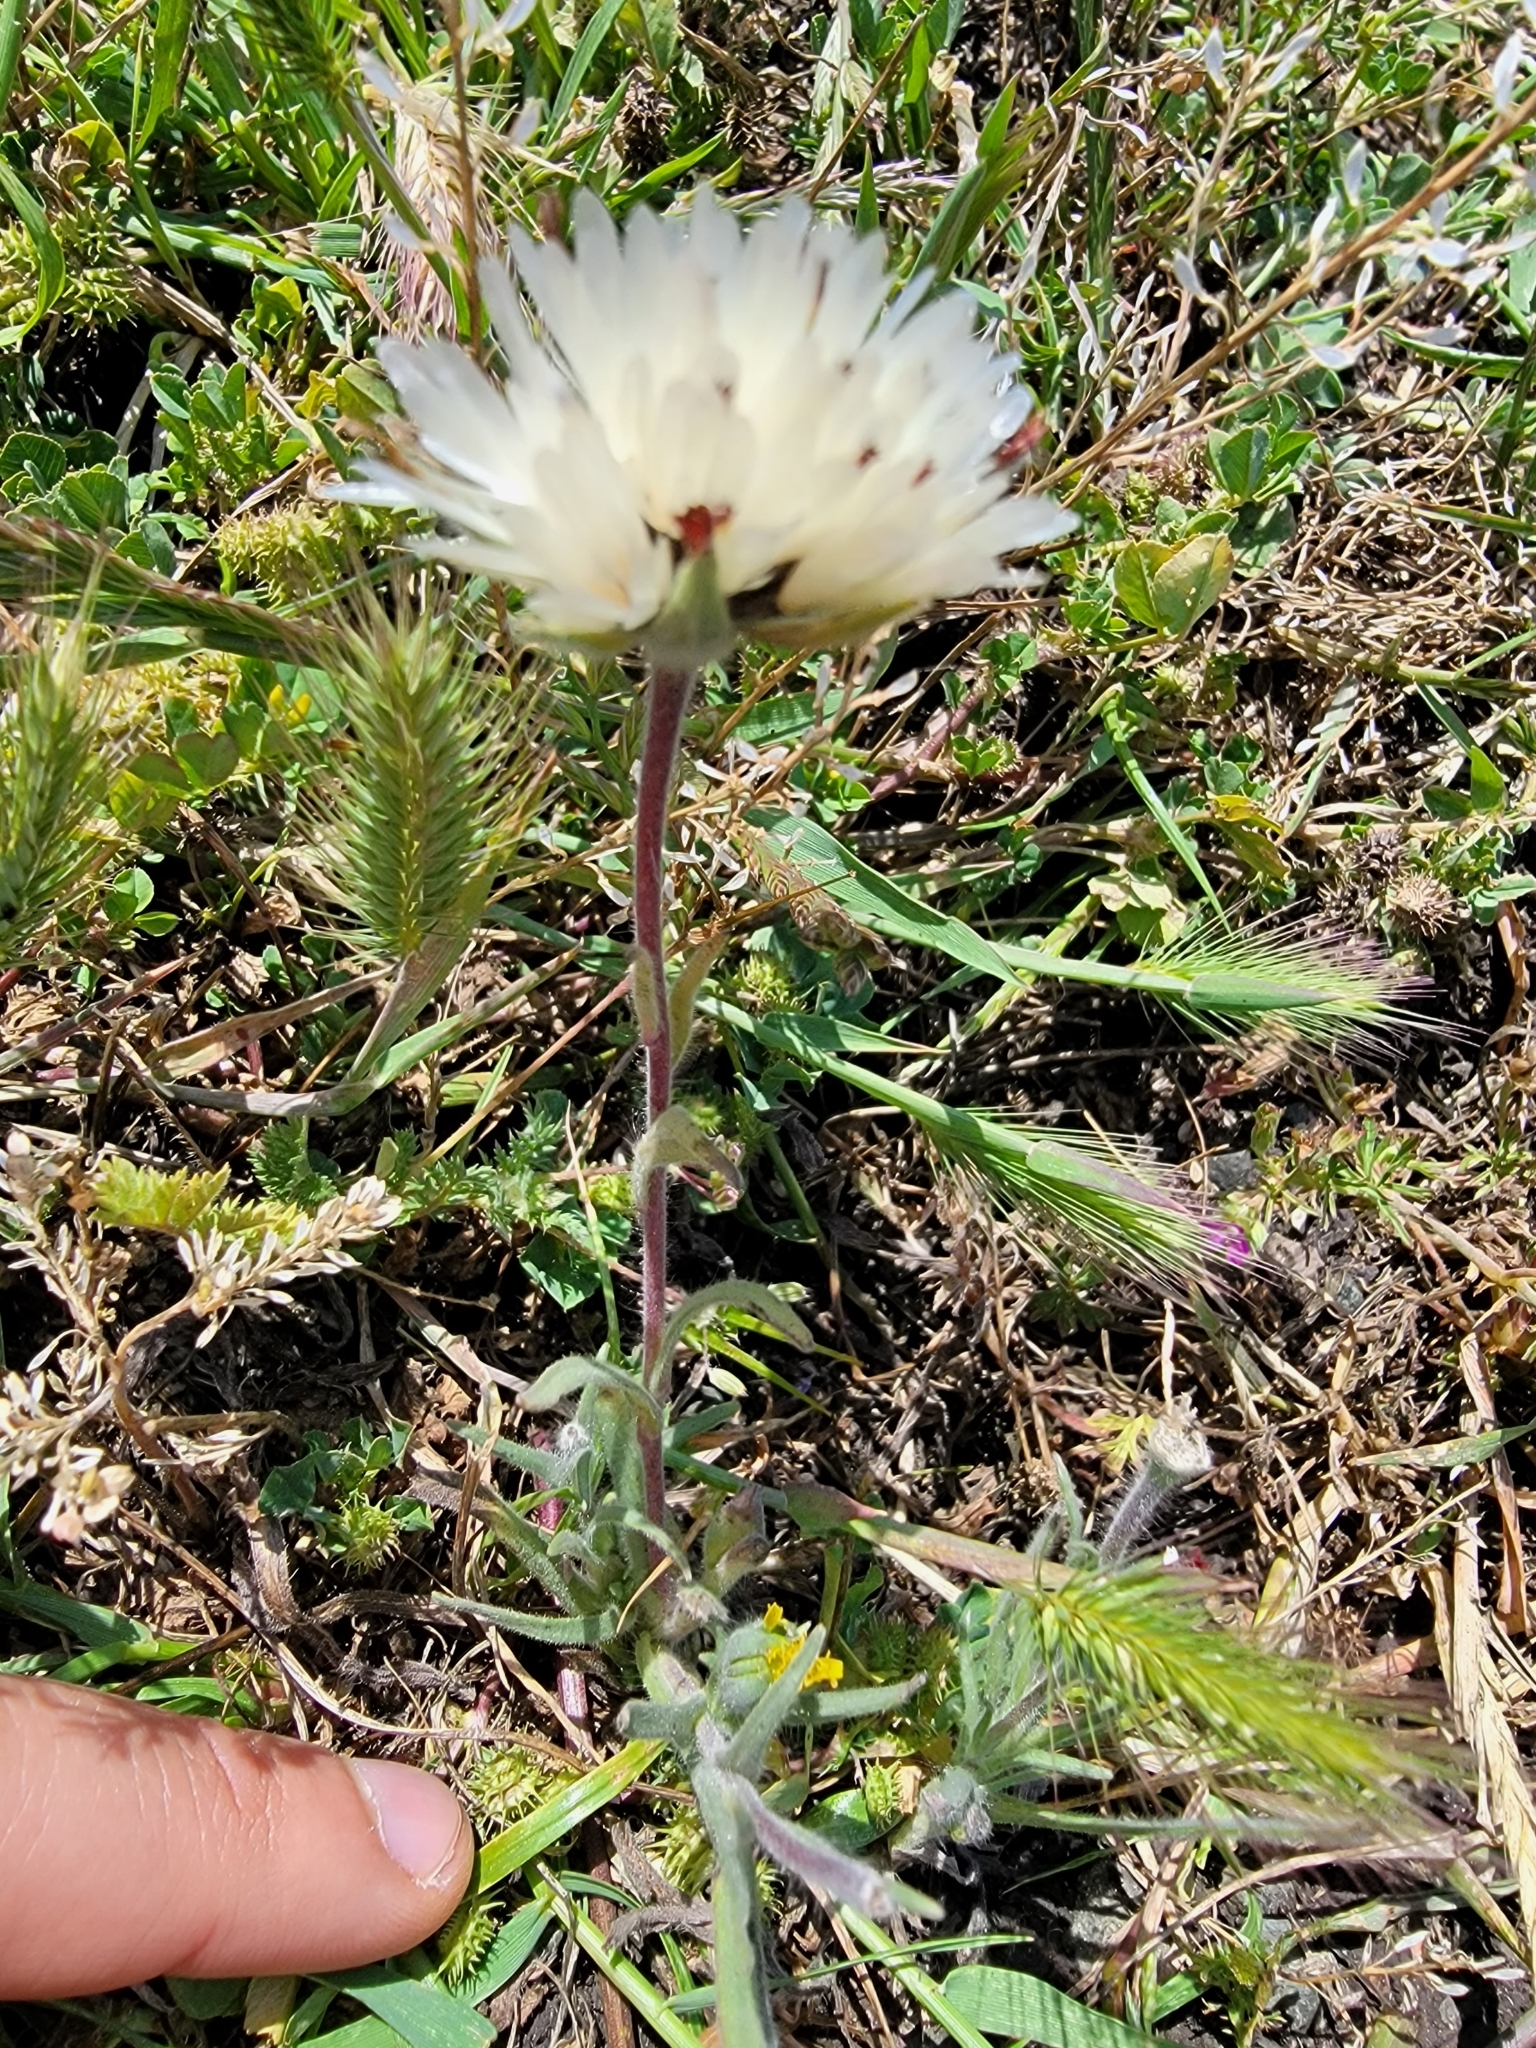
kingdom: Plantae
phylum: Tracheophyta
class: Magnoliopsida
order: Asterales
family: Asteraceae
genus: Achyrachaena
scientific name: Achyrachaena mollis
